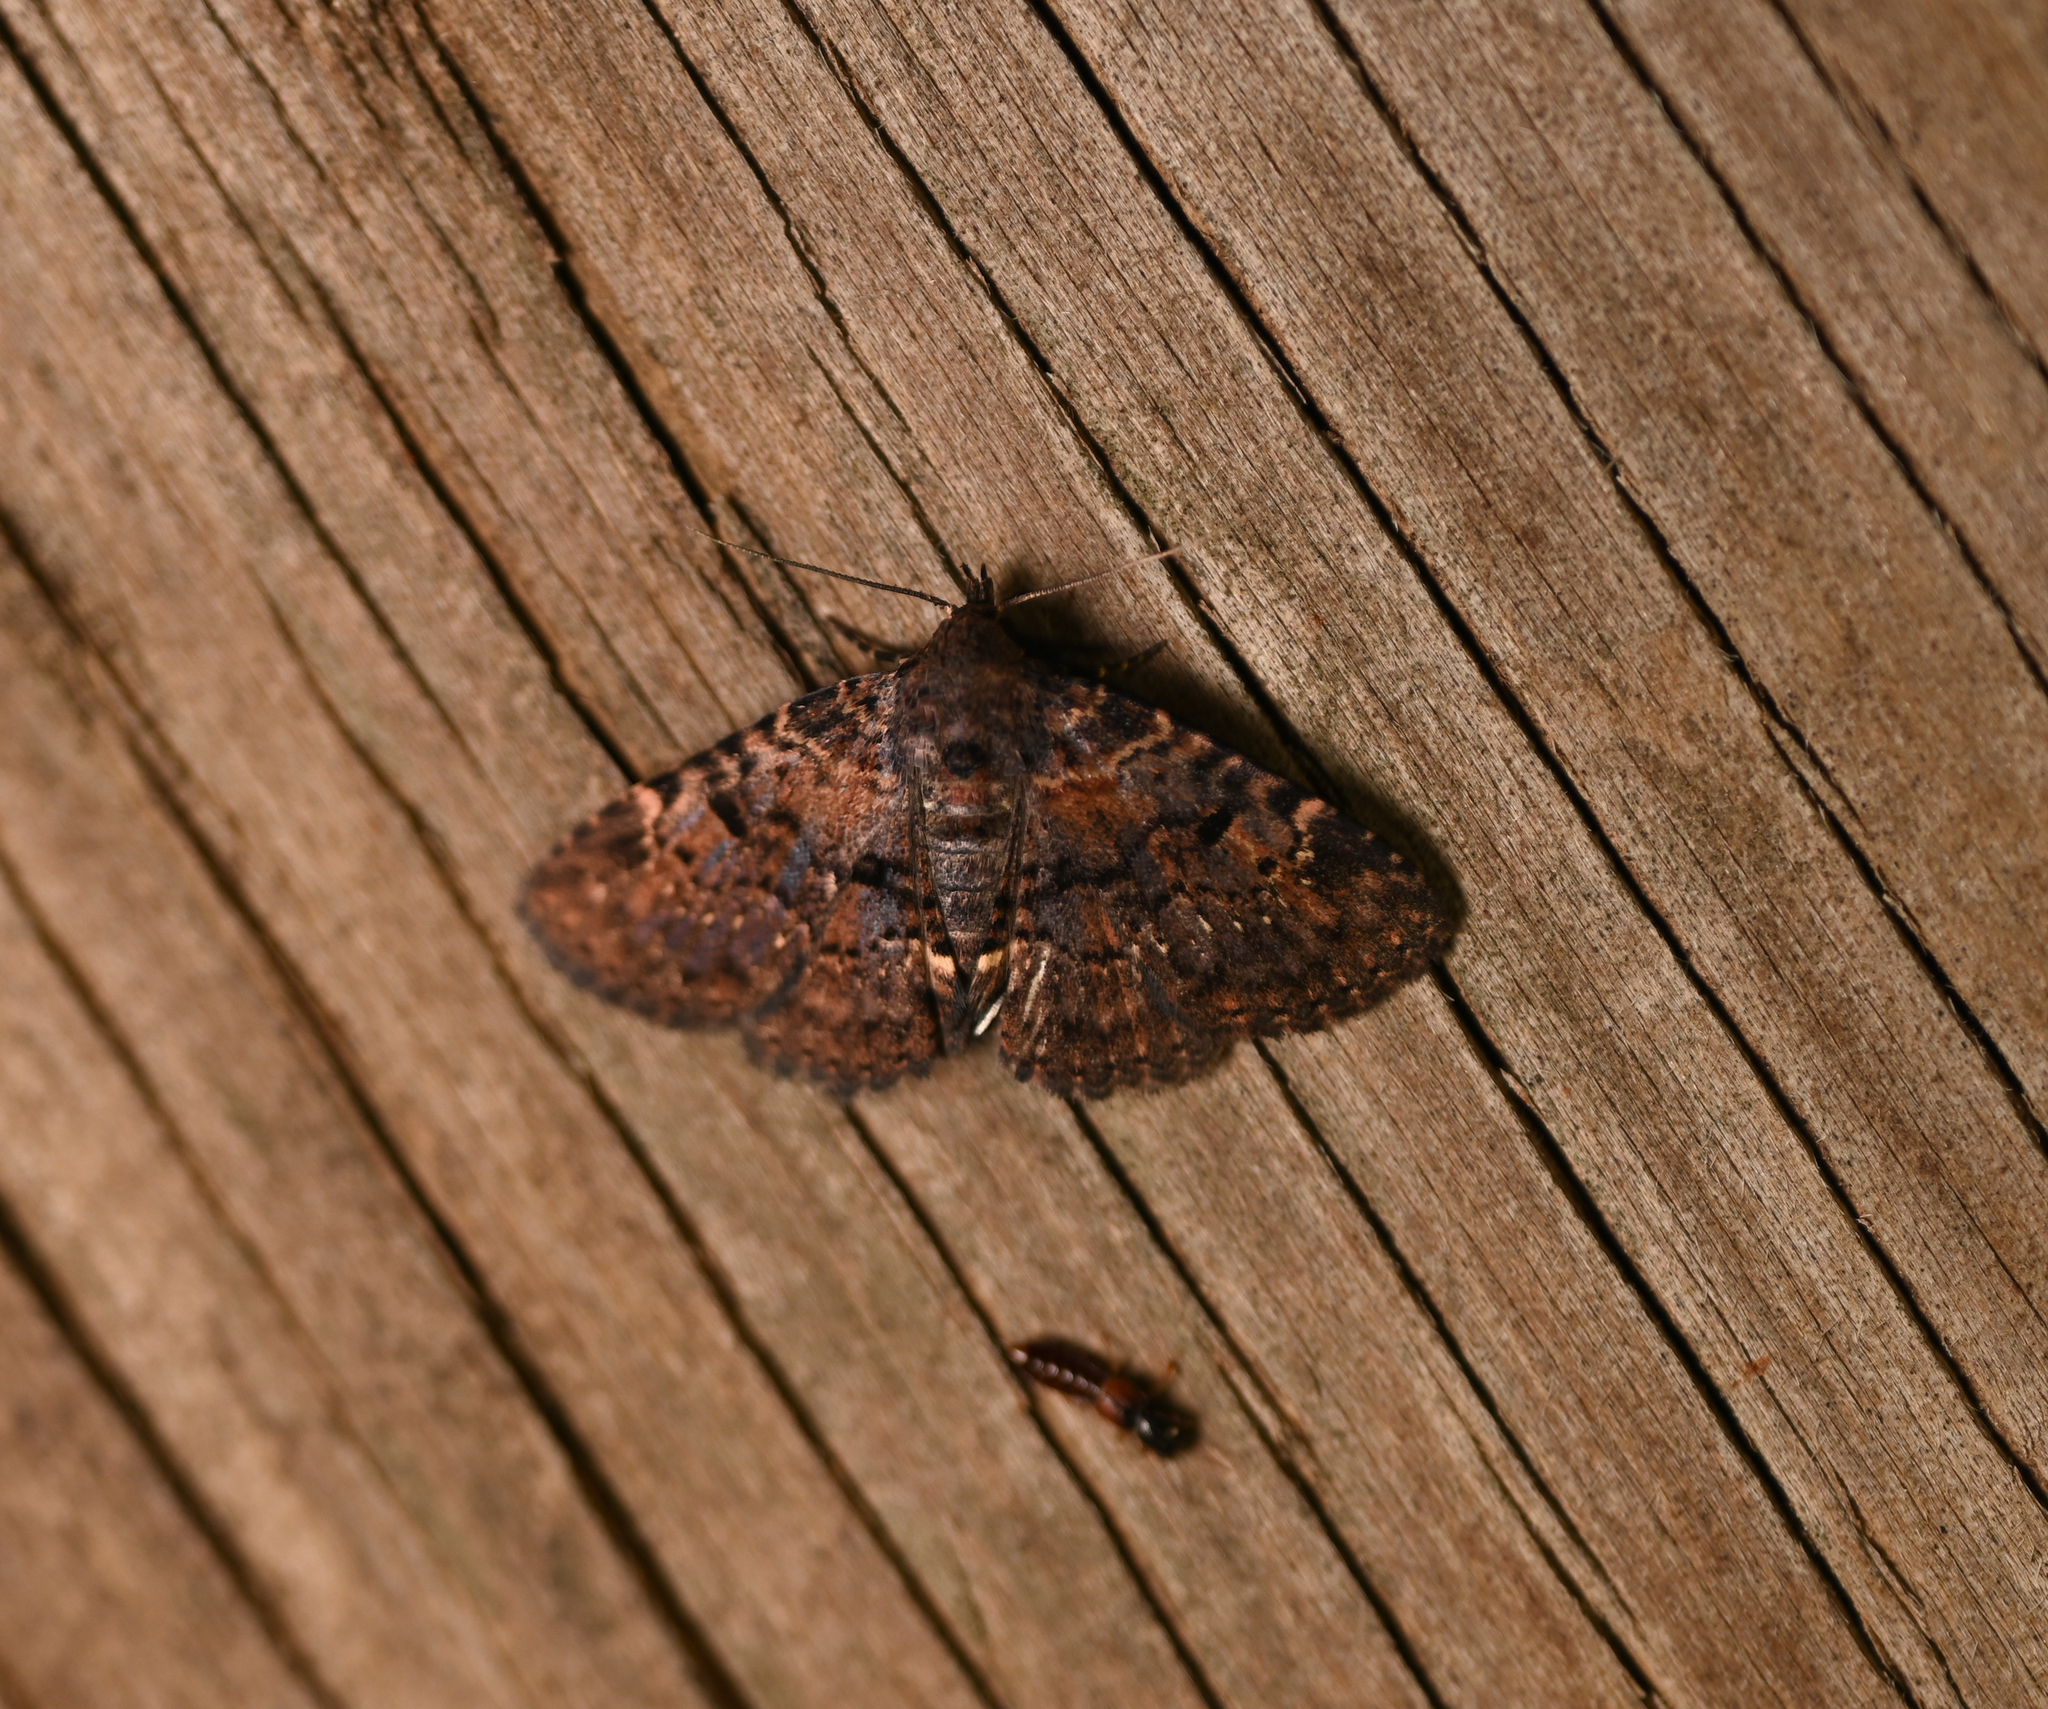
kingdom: Animalia
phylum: Arthropoda
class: Insecta
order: Lepidoptera
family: Erebidae
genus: Metalectra
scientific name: Metalectra quadrisignata
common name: Four-spotted fungus moth
